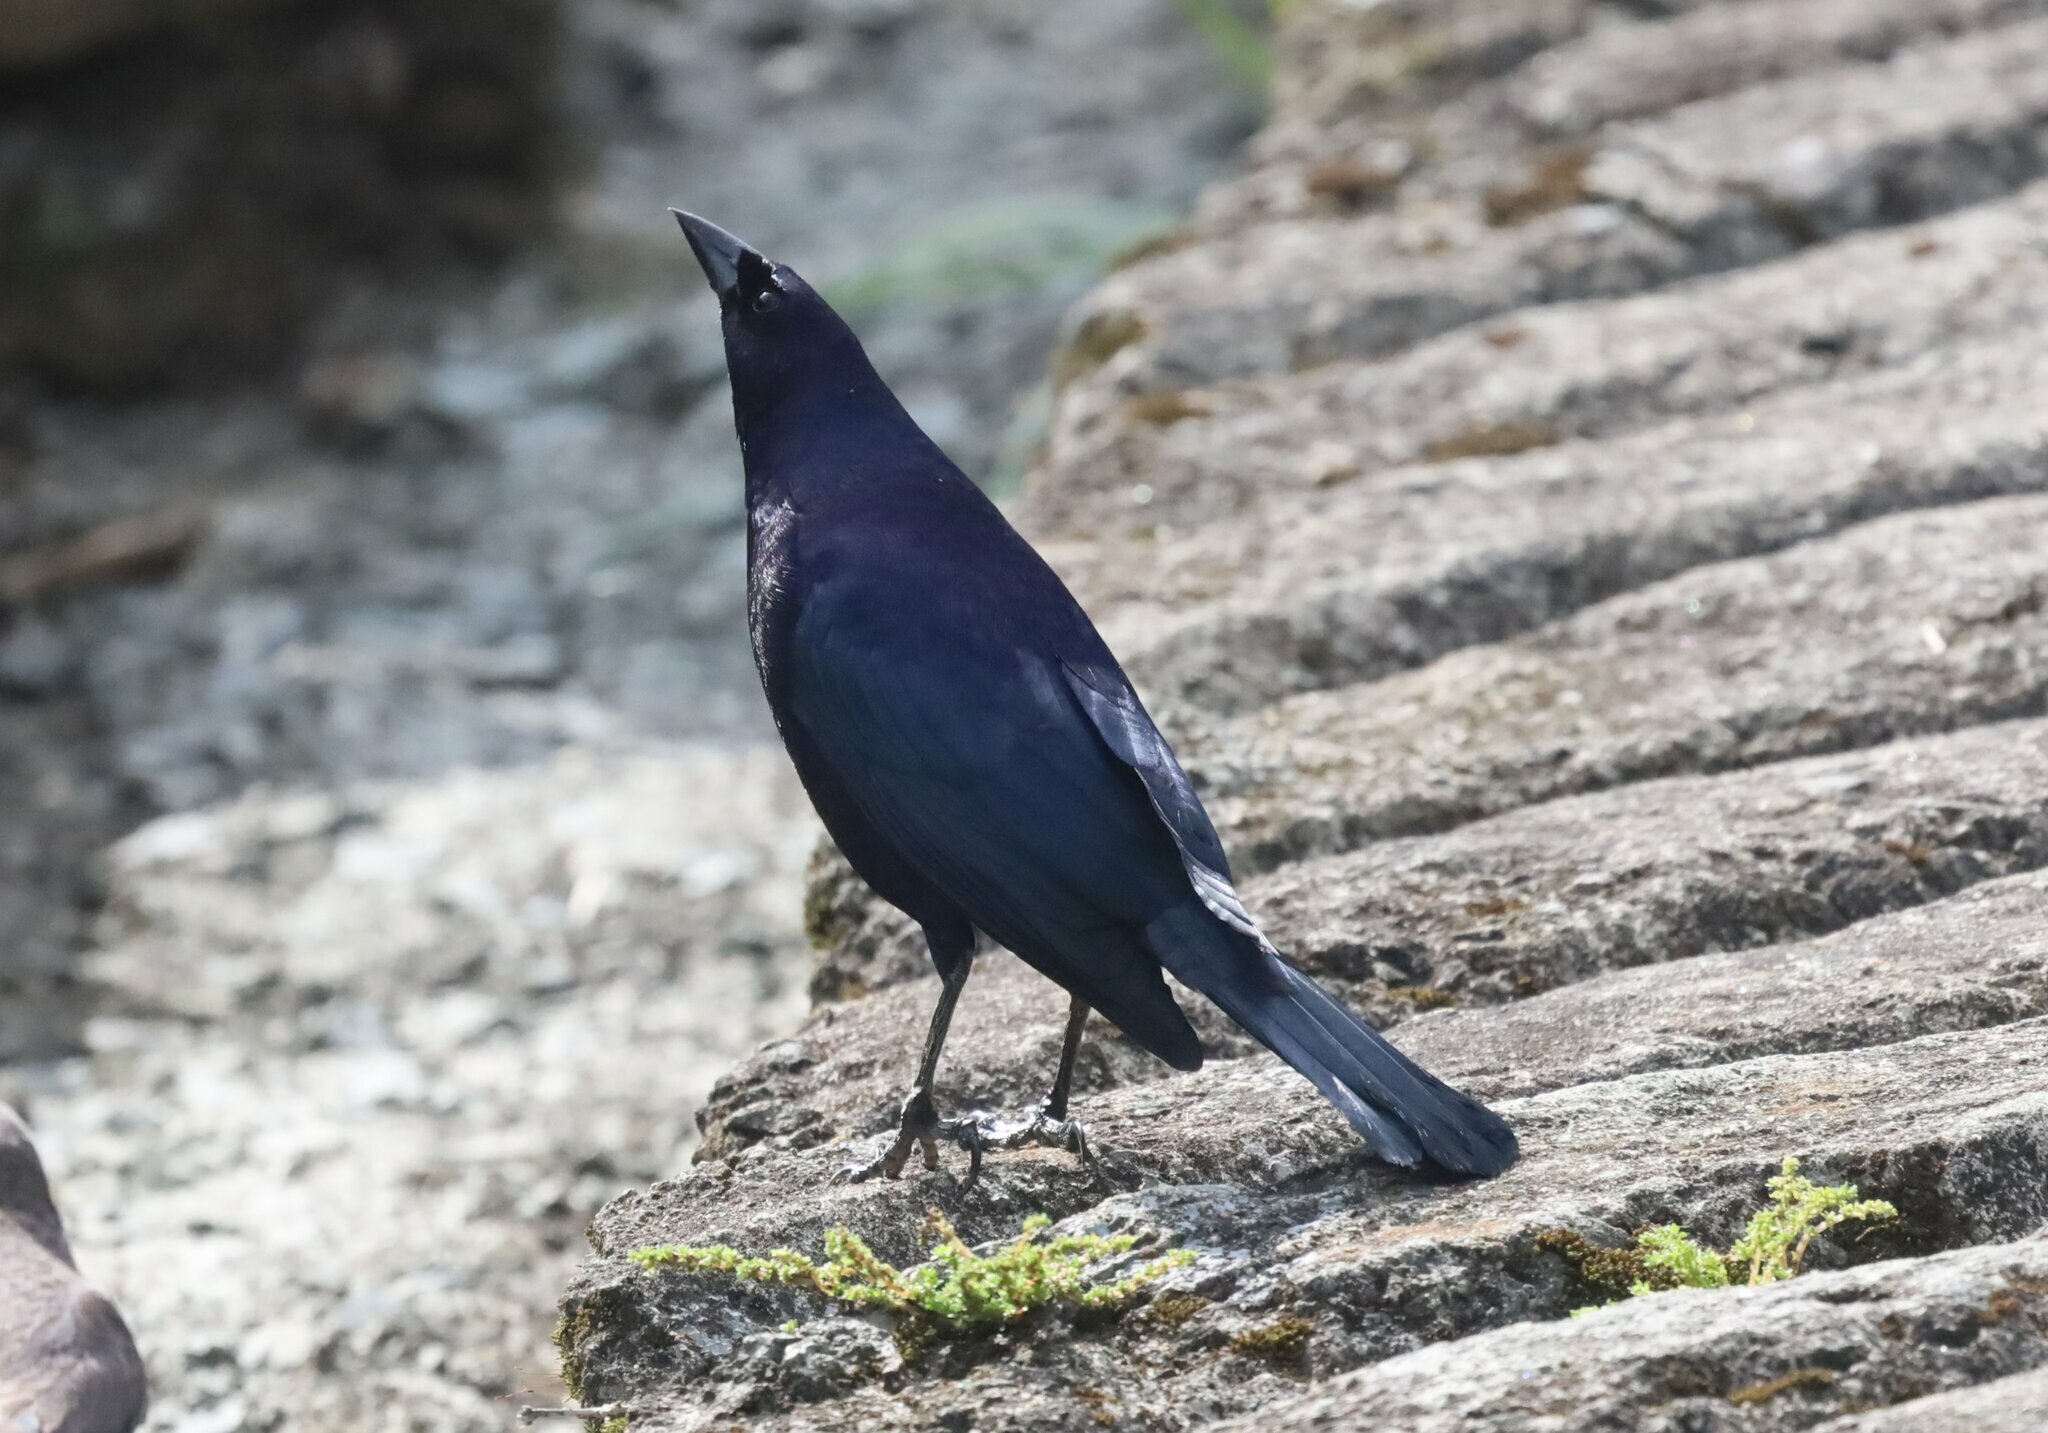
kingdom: Animalia
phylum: Chordata
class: Aves
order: Passeriformes
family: Icteridae
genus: Molothrus
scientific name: Molothrus bonariensis
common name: Shiny cowbird
